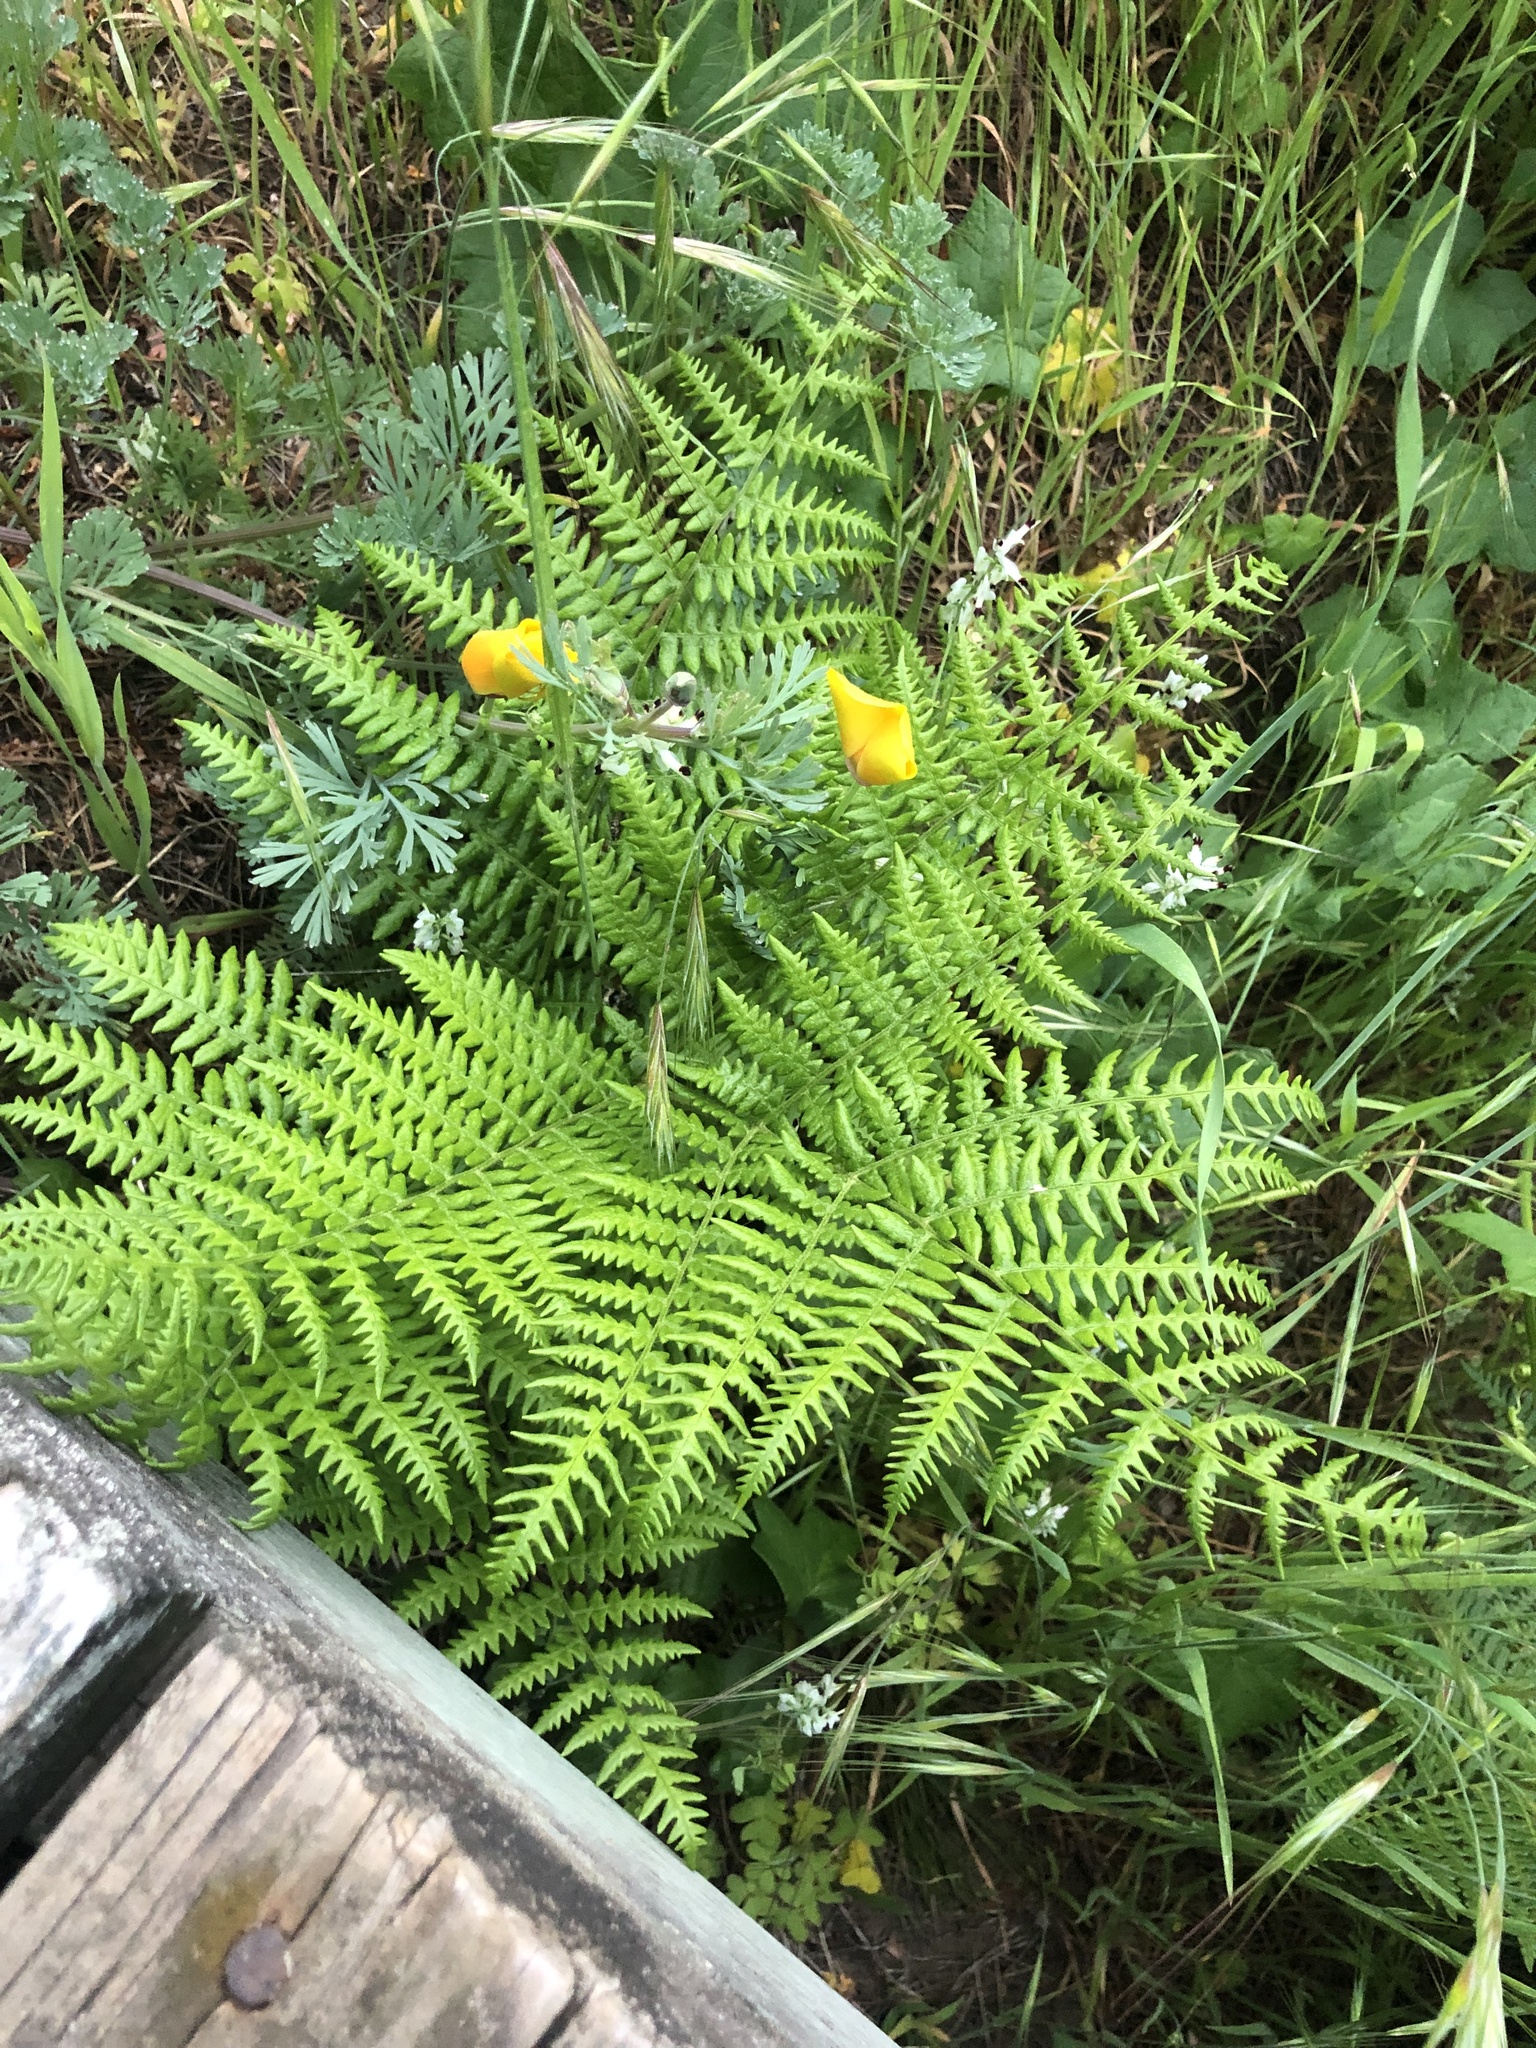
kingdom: Plantae
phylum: Tracheophyta
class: Polypodiopsida
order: Polypodiales
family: Dennstaedtiaceae
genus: Pteridium
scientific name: Pteridium aquilinum
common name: Bracken
